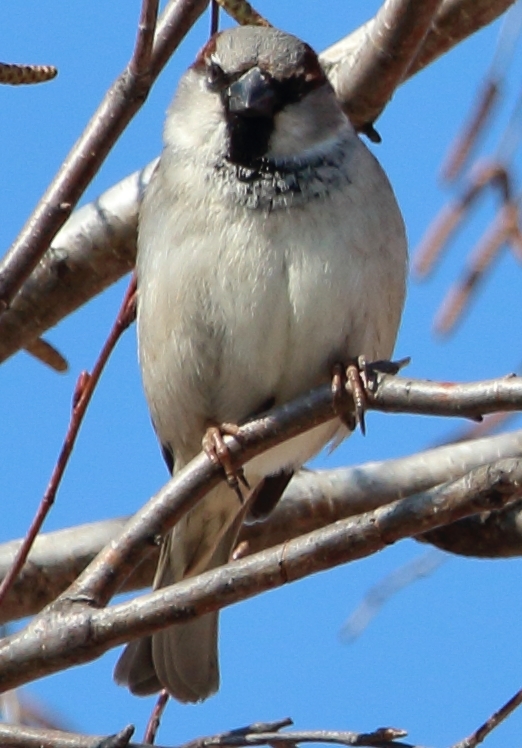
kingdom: Animalia
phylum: Chordata
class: Aves
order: Passeriformes
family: Passeridae
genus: Passer
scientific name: Passer domesticus
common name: House sparrow
